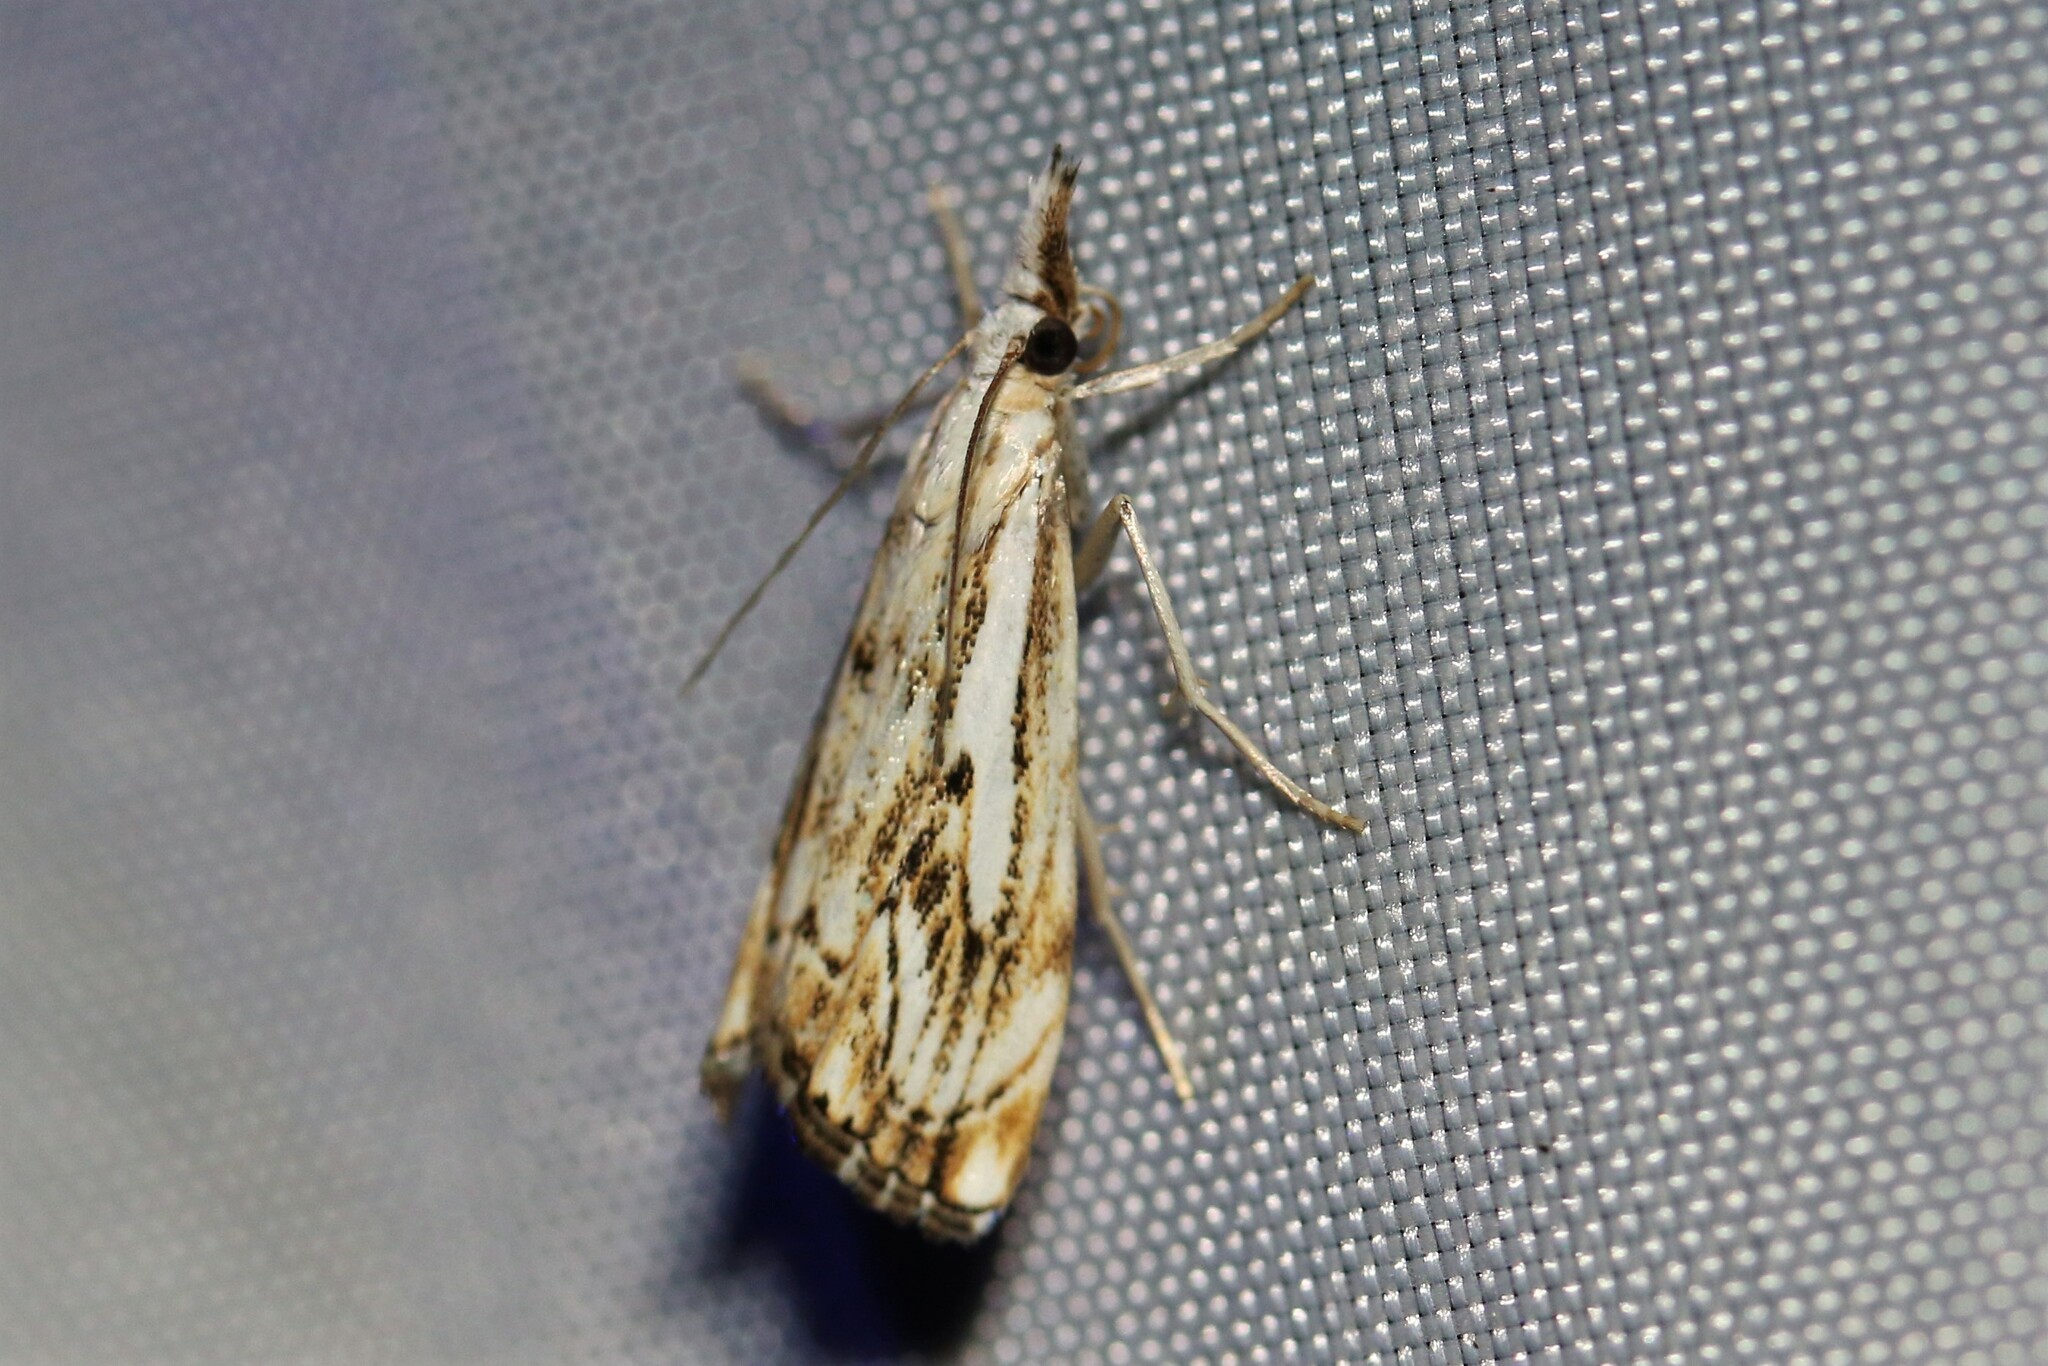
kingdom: Animalia
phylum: Arthropoda
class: Insecta
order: Lepidoptera
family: Crambidae
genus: Catoptria
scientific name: Catoptria falsella
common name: Chequered grass-veneer
